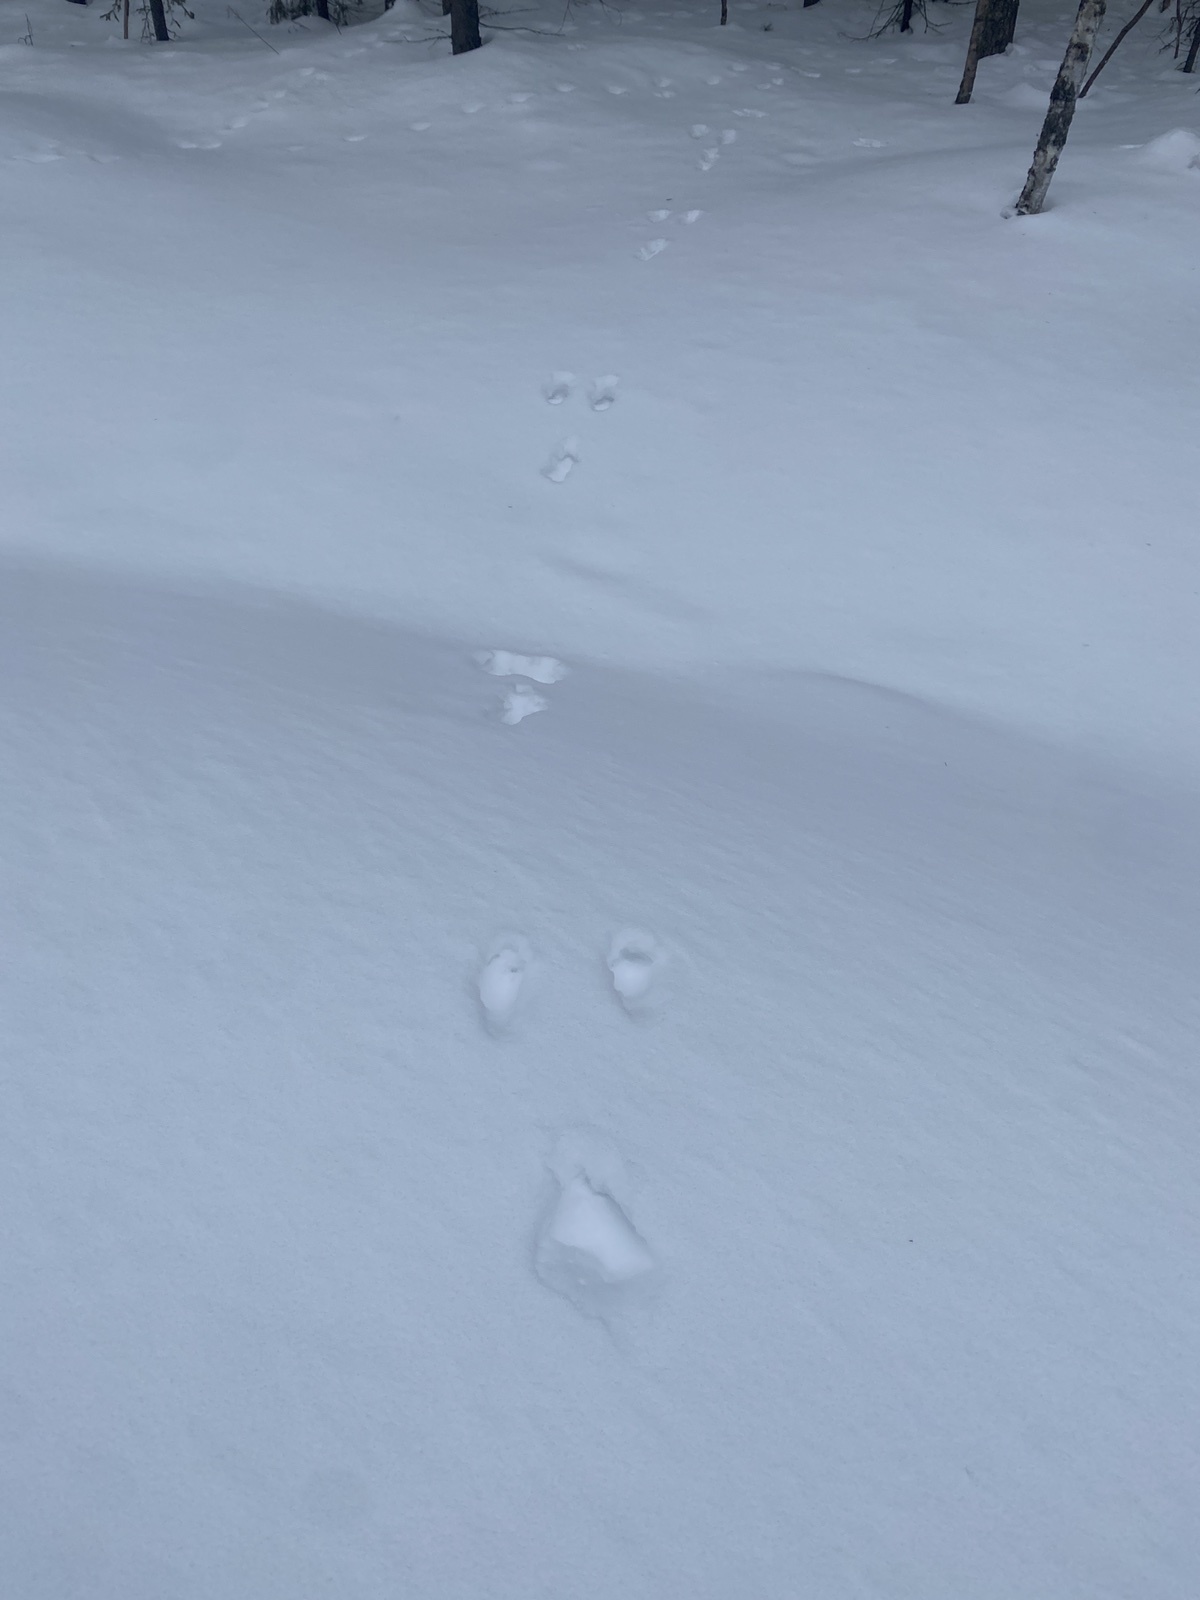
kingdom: Animalia
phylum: Chordata
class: Mammalia
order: Lagomorpha
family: Leporidae
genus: Lepus
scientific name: Lepus timidus
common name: Mountain hare
